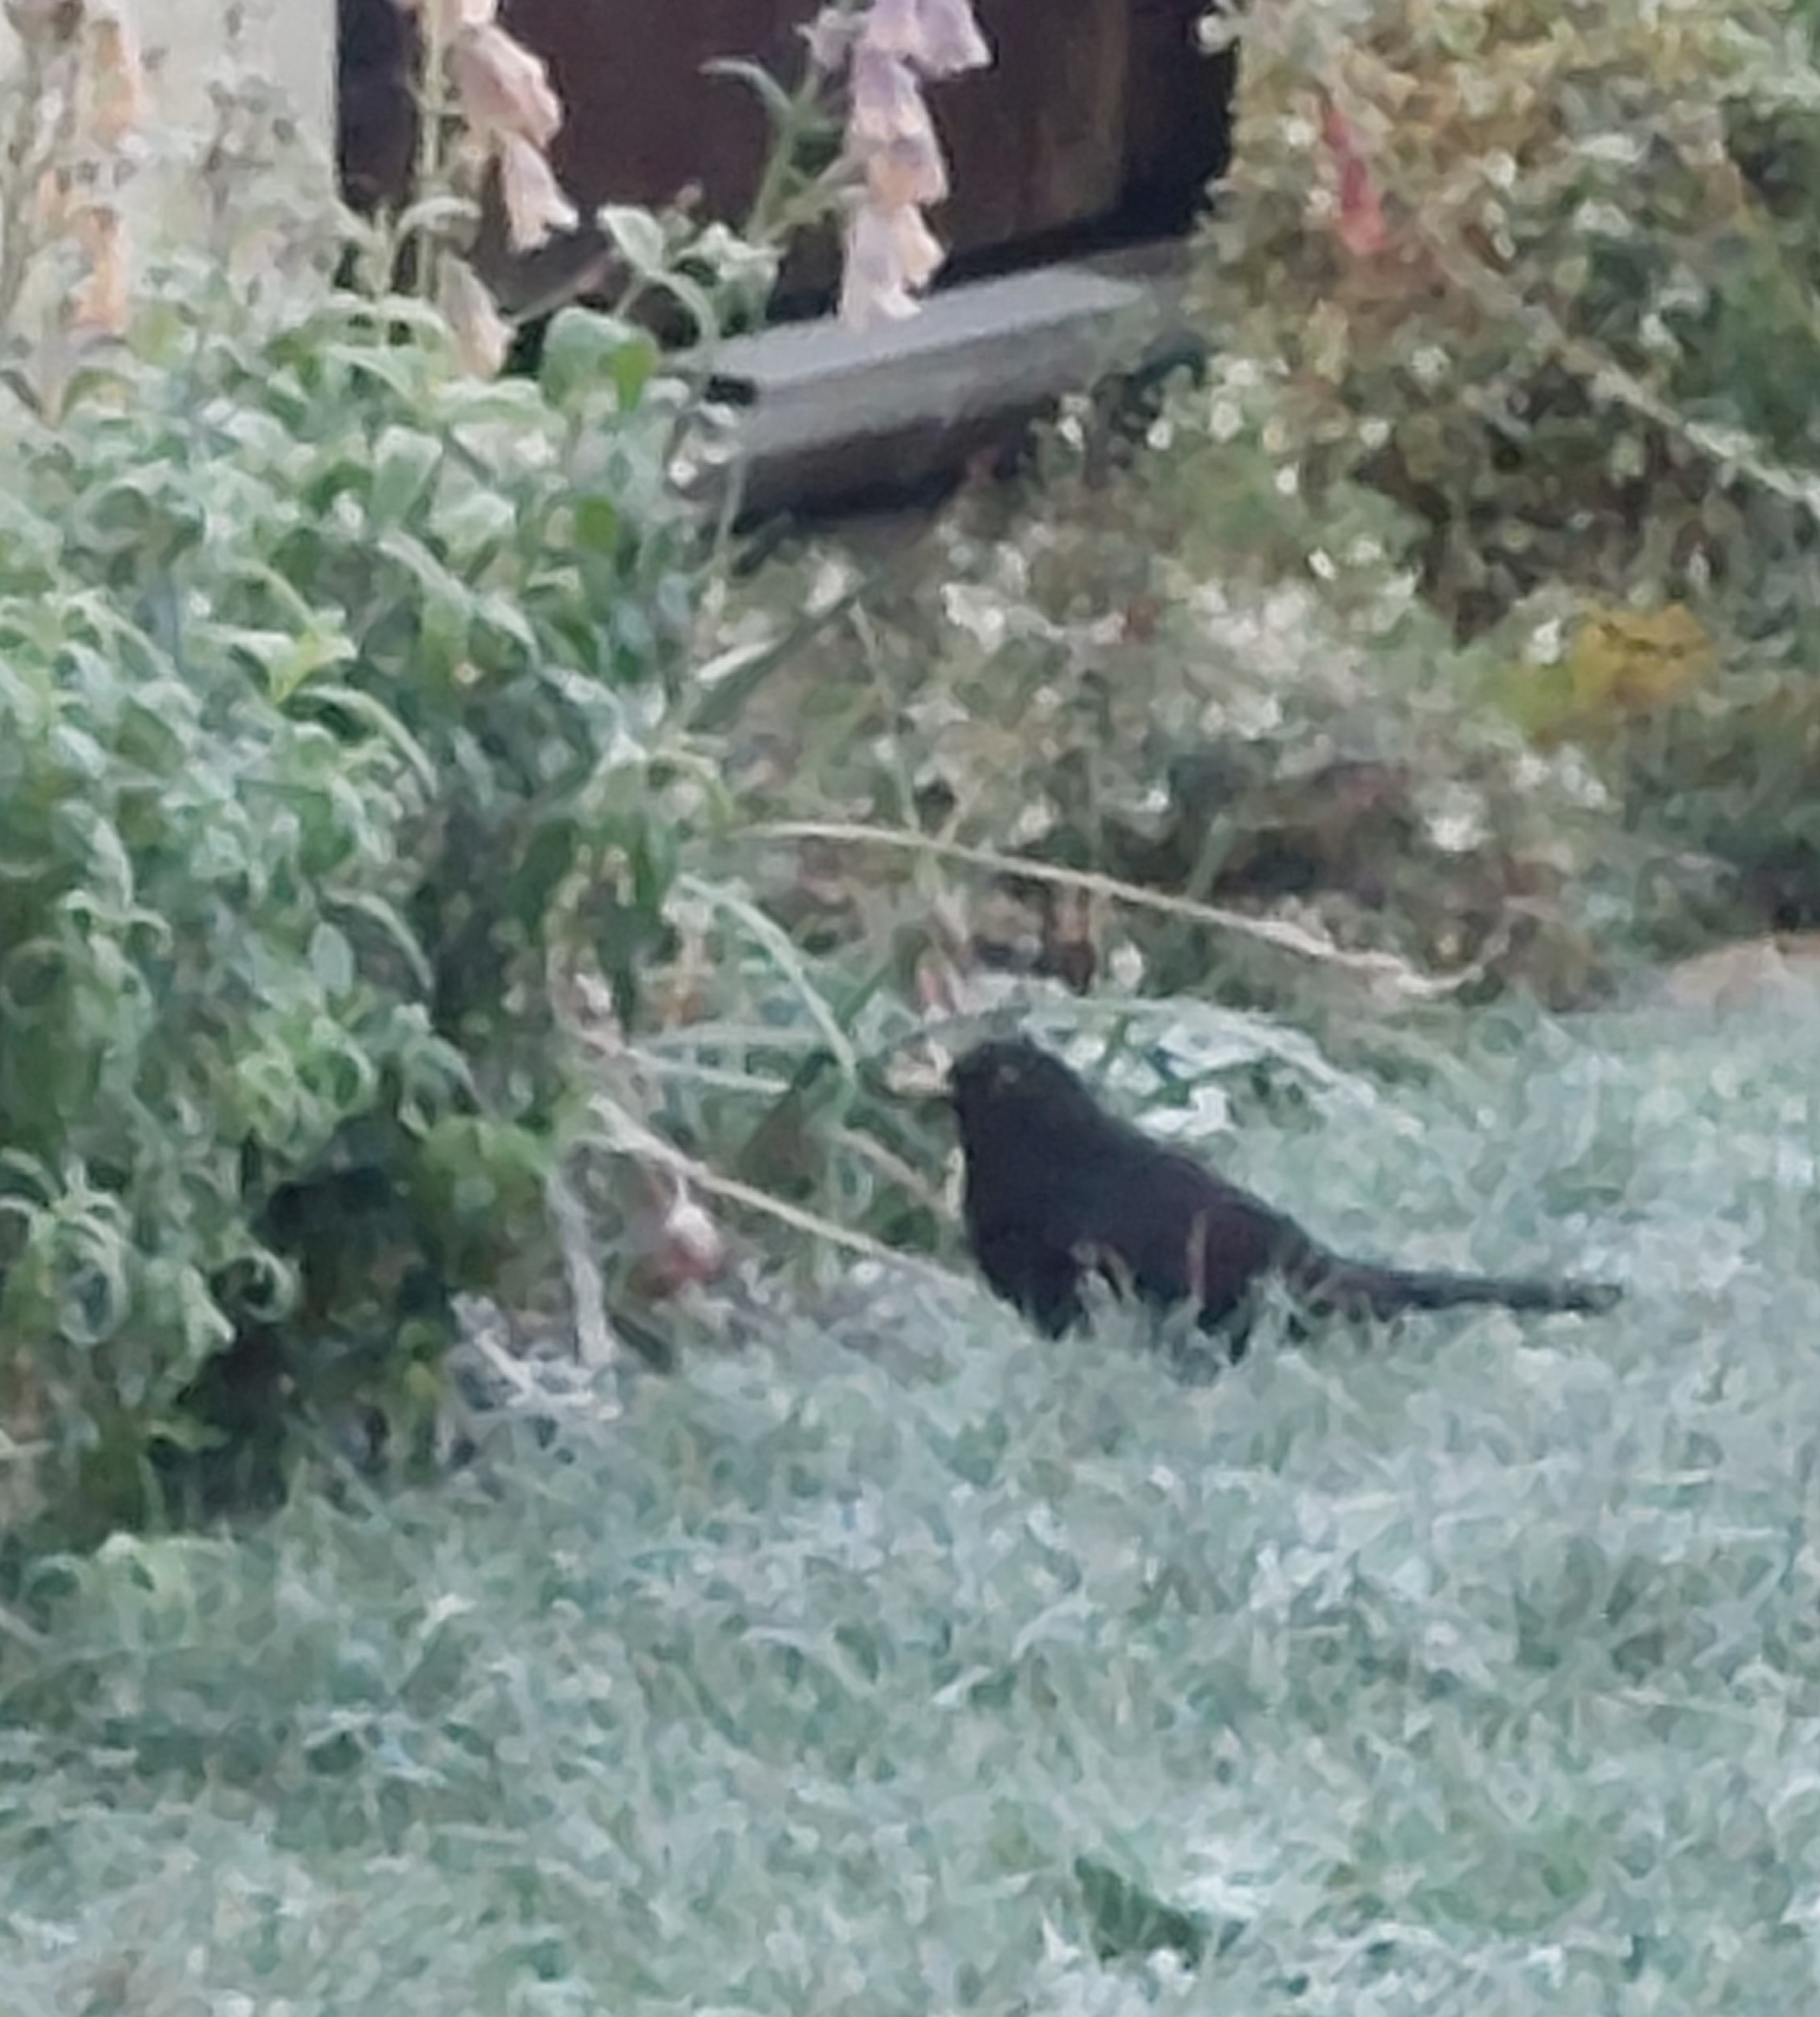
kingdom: Animalia
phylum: Chordata
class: Aves
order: Passeriformes
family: Turdidae
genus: Turdus
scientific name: Turdus merula
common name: Common blackbird
